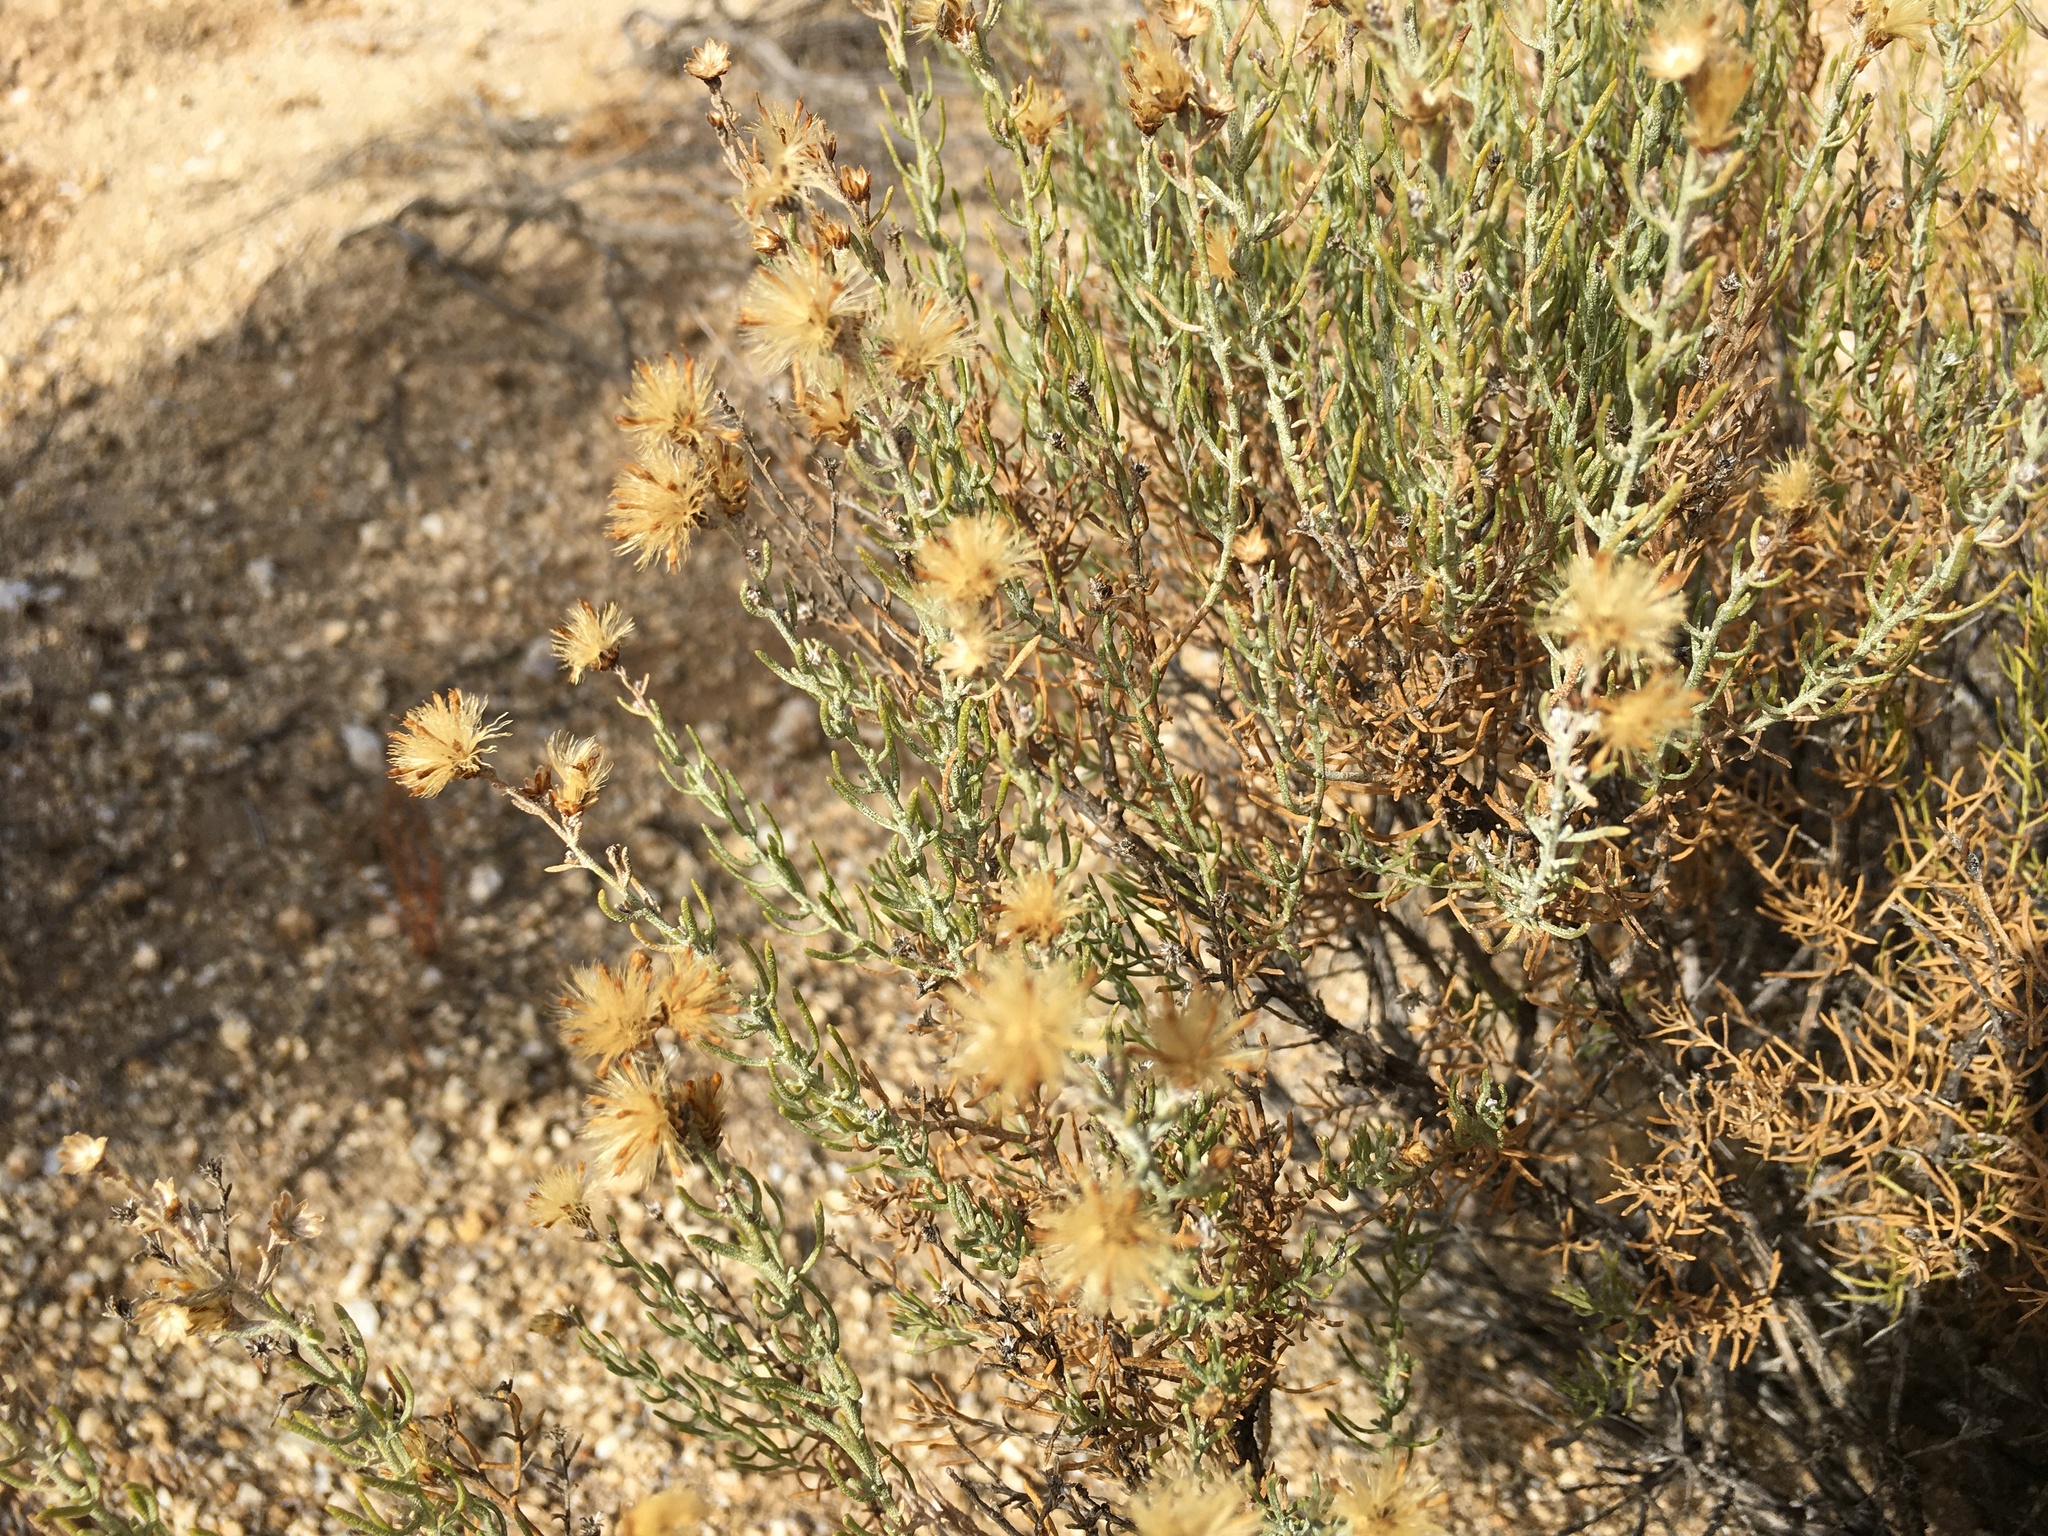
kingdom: Plantae
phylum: Tracheophyta
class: Magnoliopsida
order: Asterales
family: Asteraceae
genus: Ericameria
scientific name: Ericameria brachylepis
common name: Boundary goldenbush
